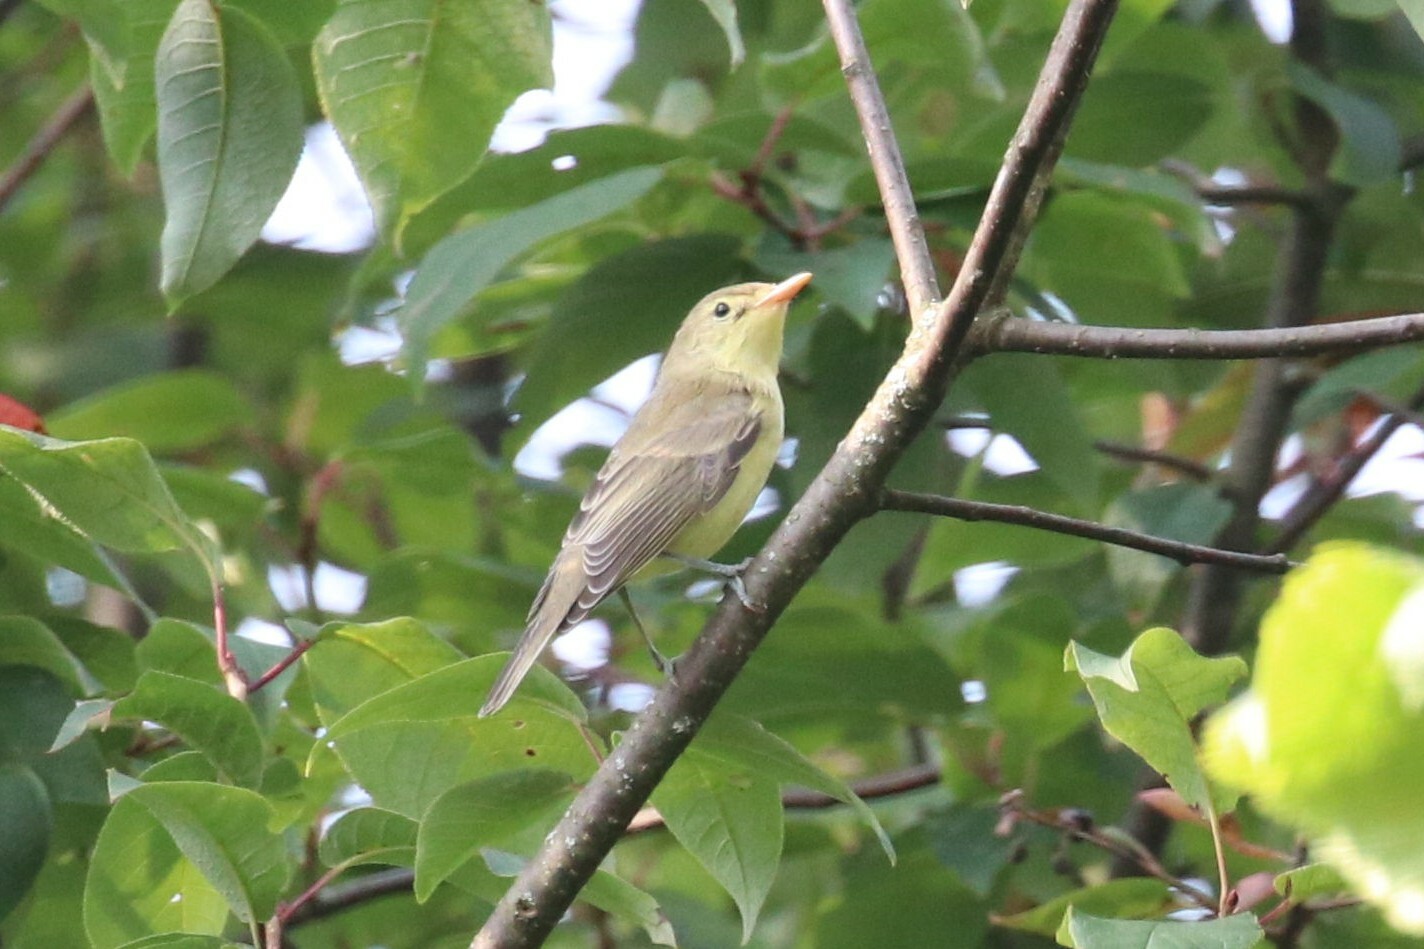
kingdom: Animalia
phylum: Chordata
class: Aves
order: Passeriformes
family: Acrocephalidae
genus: Hippolais
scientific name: Hippolais icterina
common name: Icterine warbler
